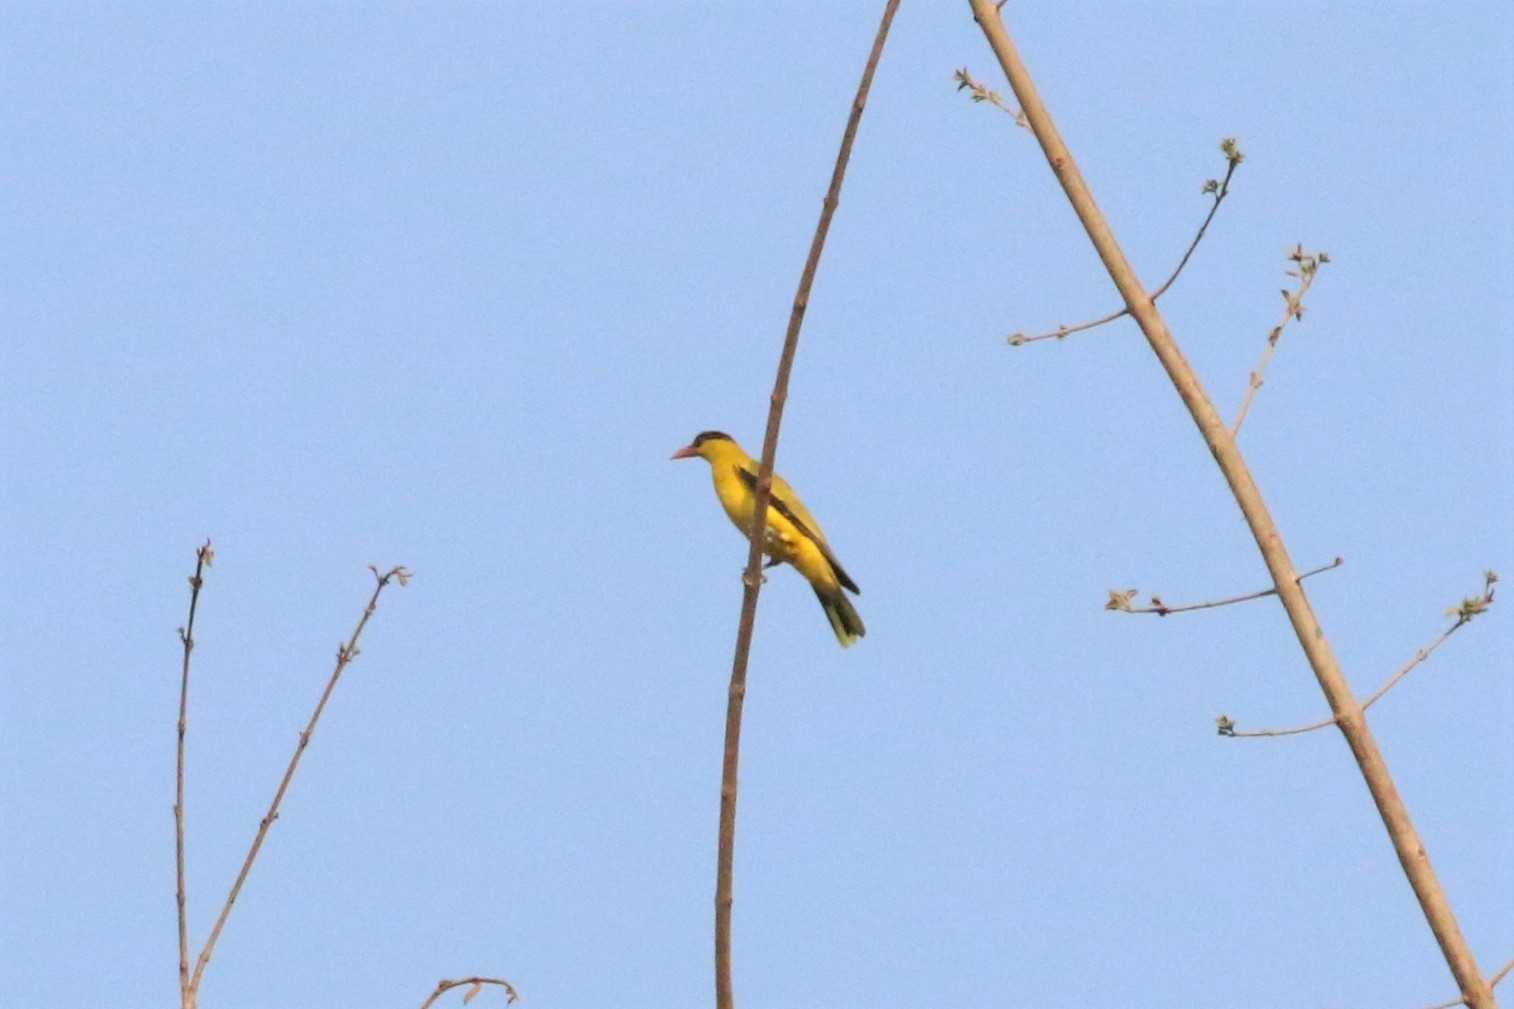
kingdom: Animalia
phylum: Chordata
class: Aves
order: Passeriformes
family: Oriolidae
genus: Oriolus
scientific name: Oriolus chinensis
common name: Black-naped oriole
